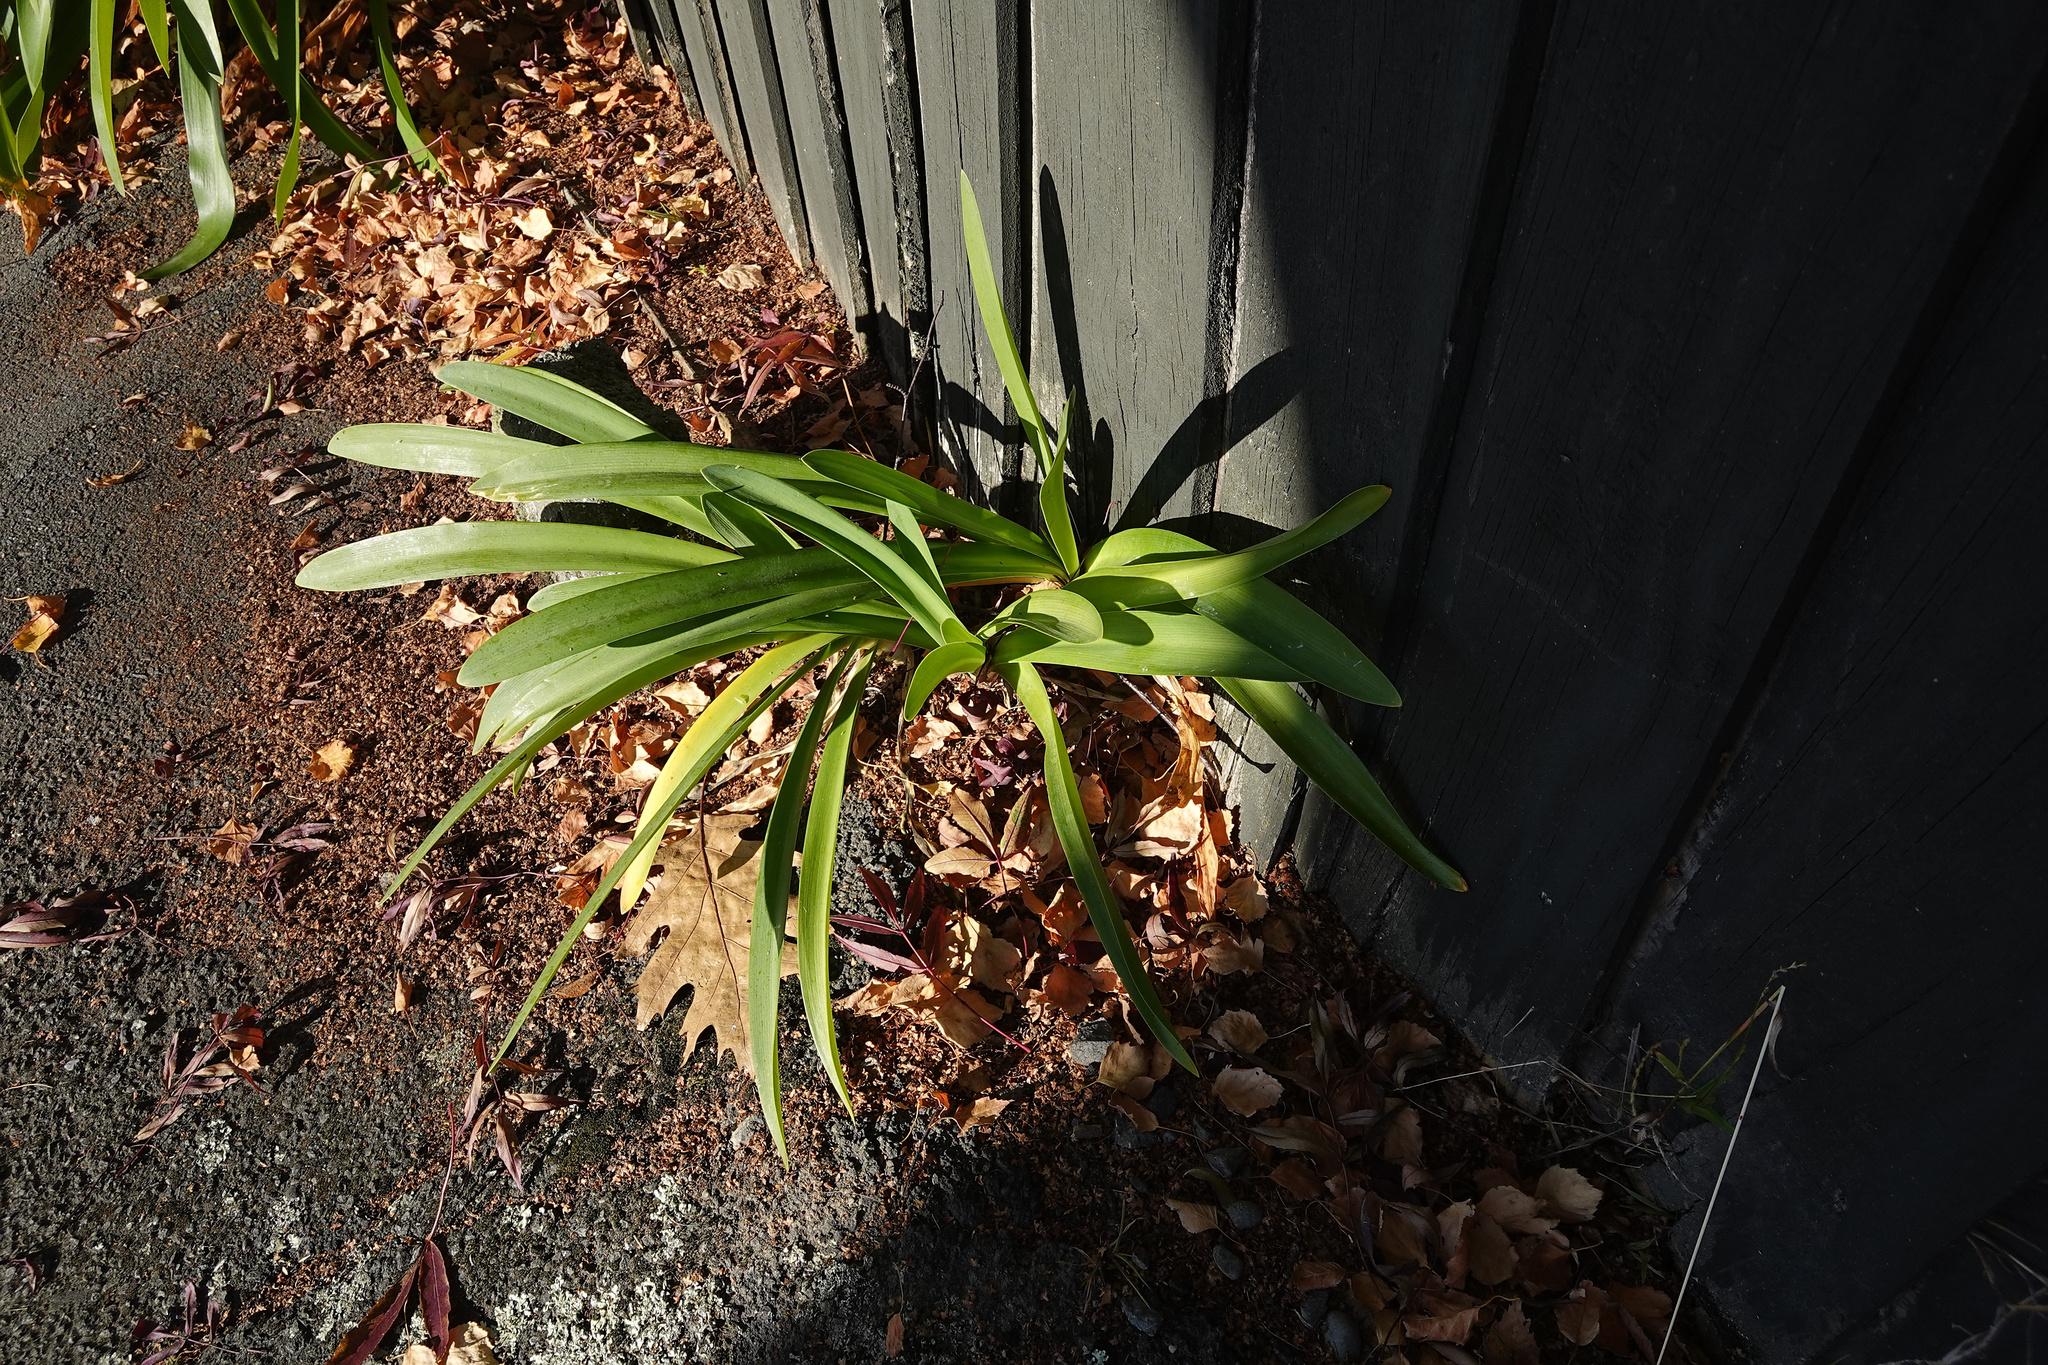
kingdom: Plantae
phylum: Tracheophyta
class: Liliopsida
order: Asparagales
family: Amaryllidaceae
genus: Agapanthus
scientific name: Agapanthus praecox
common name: African-lily
